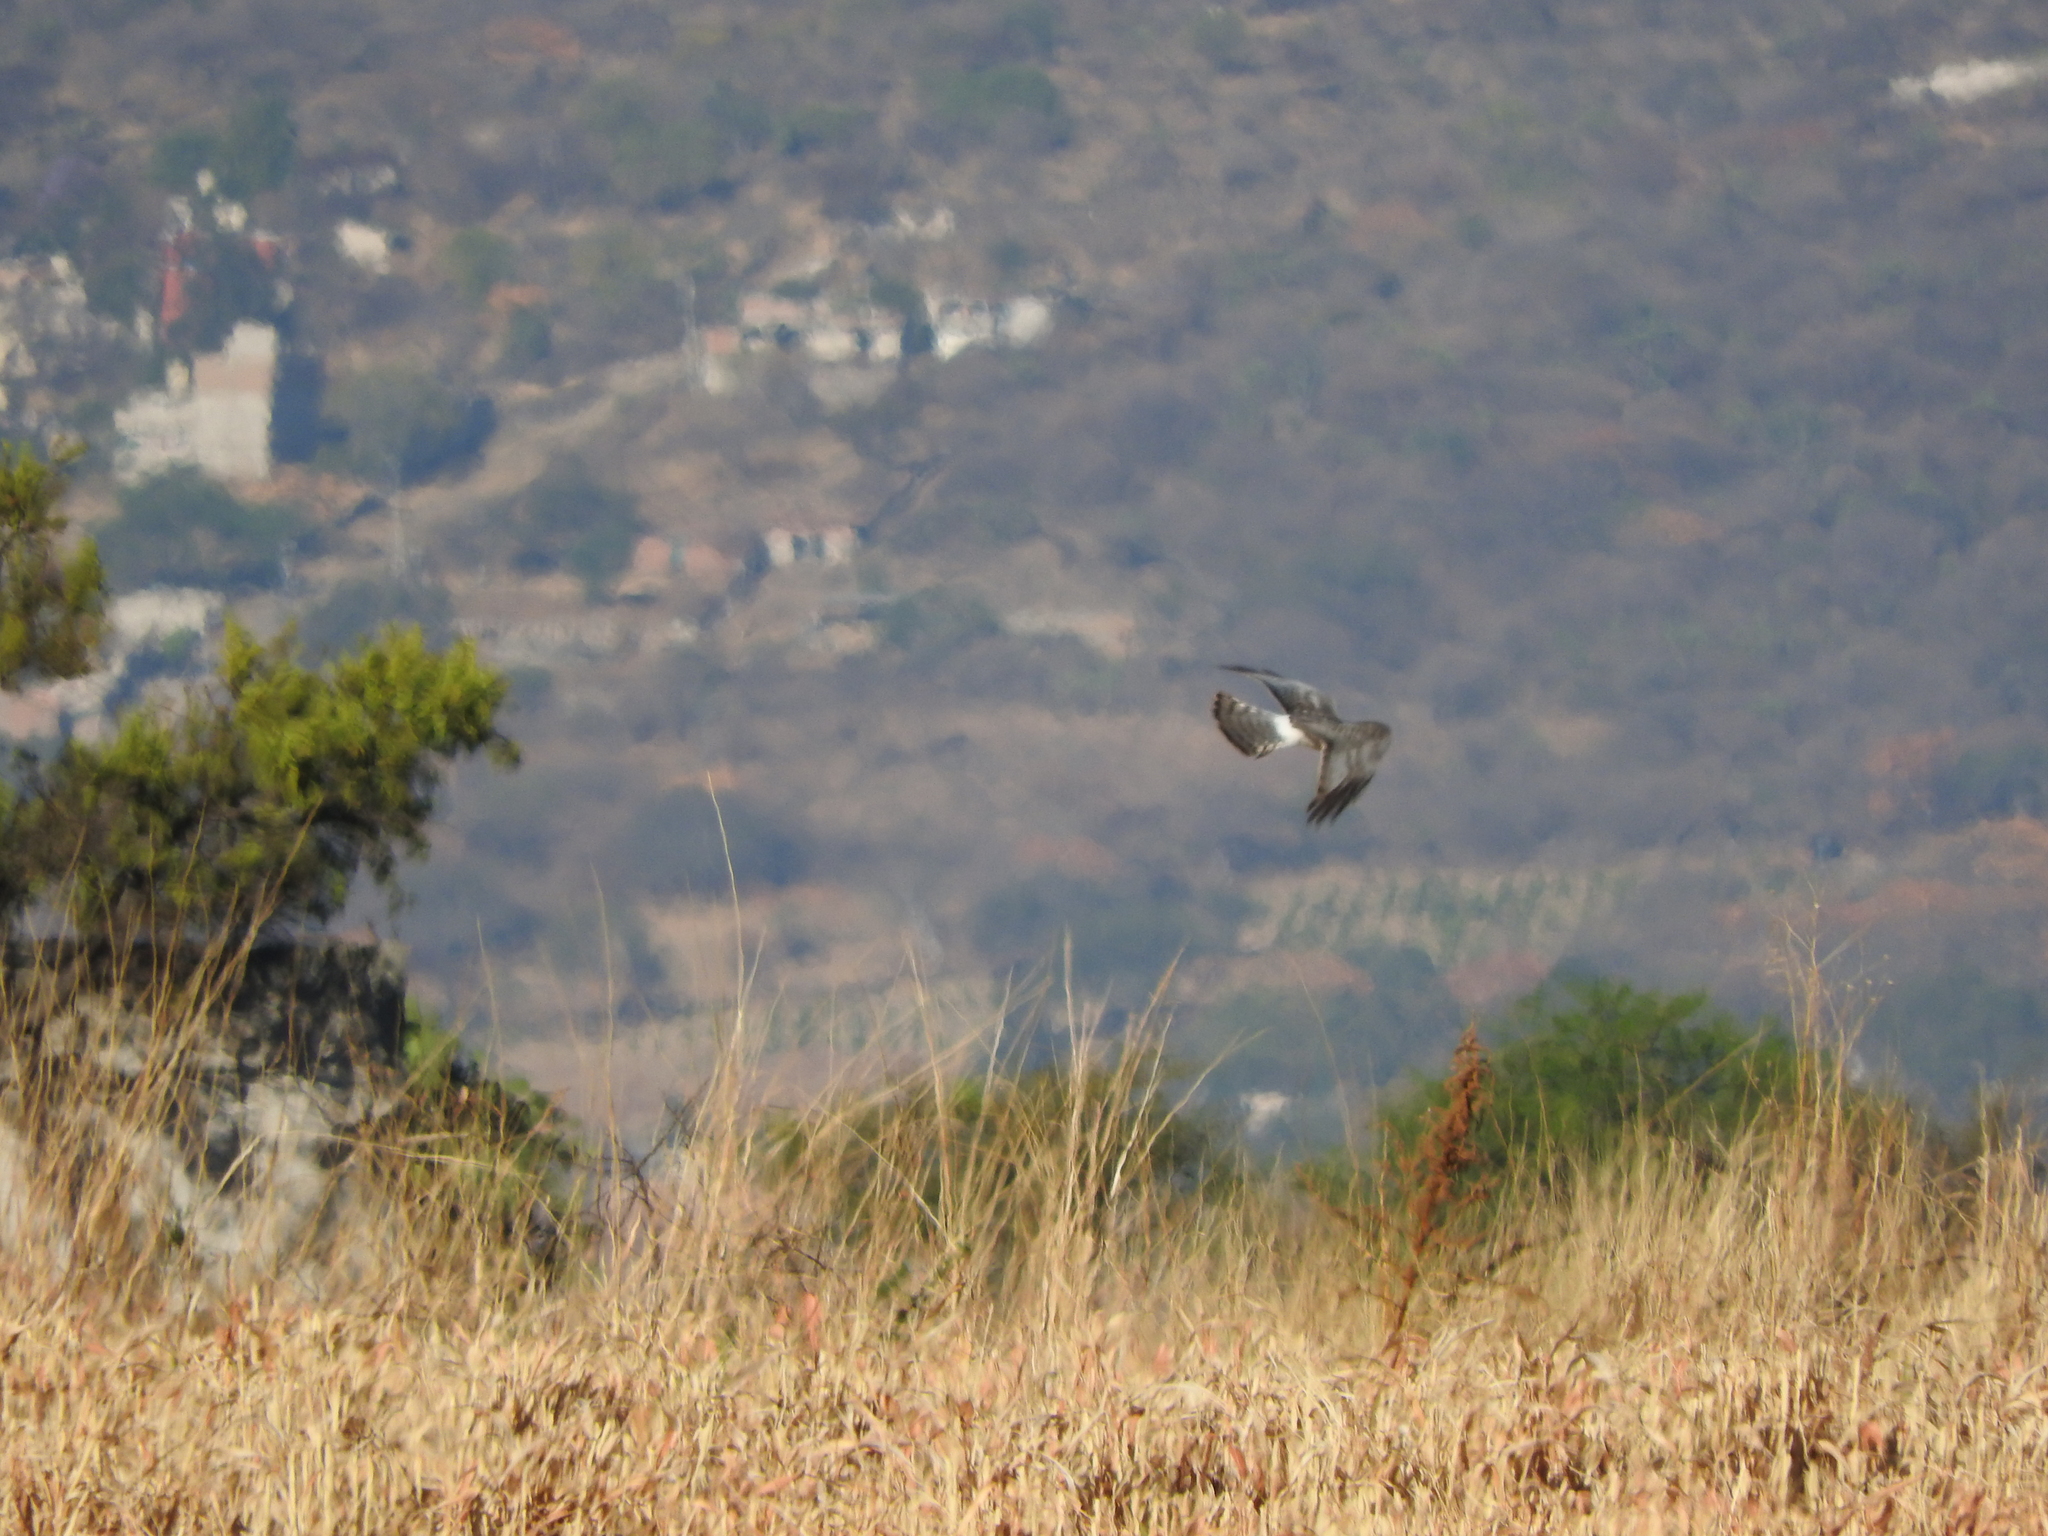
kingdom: Animalia
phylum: Chordata
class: Aves
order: Accipitriformes
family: Accipitridae
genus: Circus
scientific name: Circus cyaneus
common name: Hen harrier
